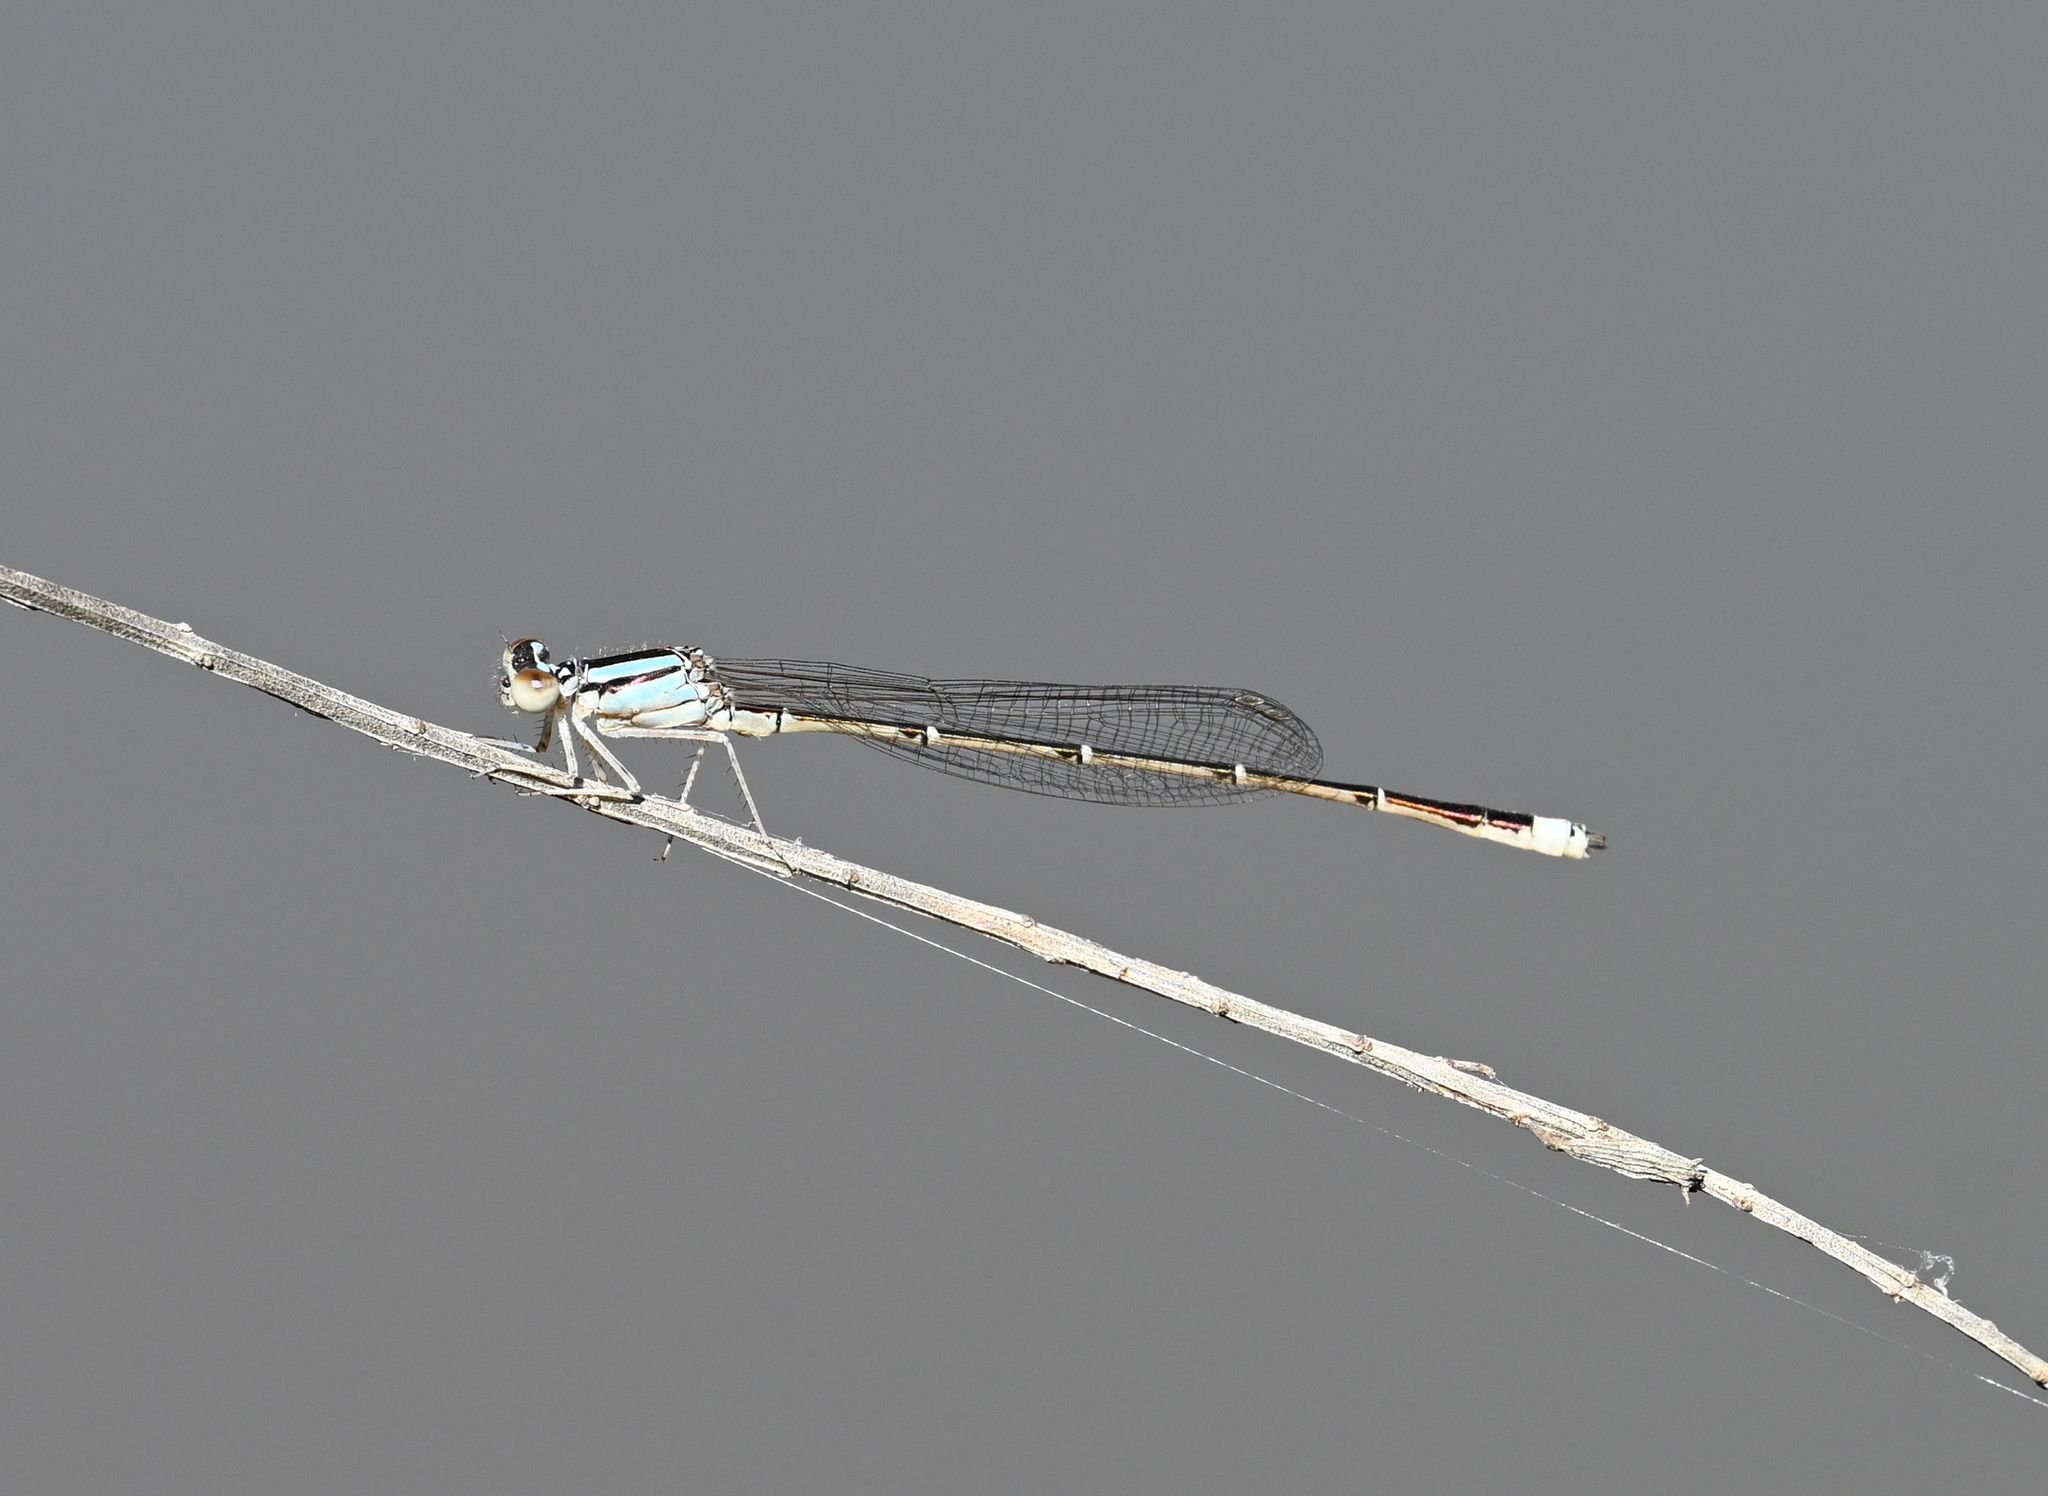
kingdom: Animalia
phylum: Arthropoda
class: Insecta
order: Odonata
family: Coenagrionidae
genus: Enallagma
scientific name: Enallagma signatum
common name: Orange bluet
